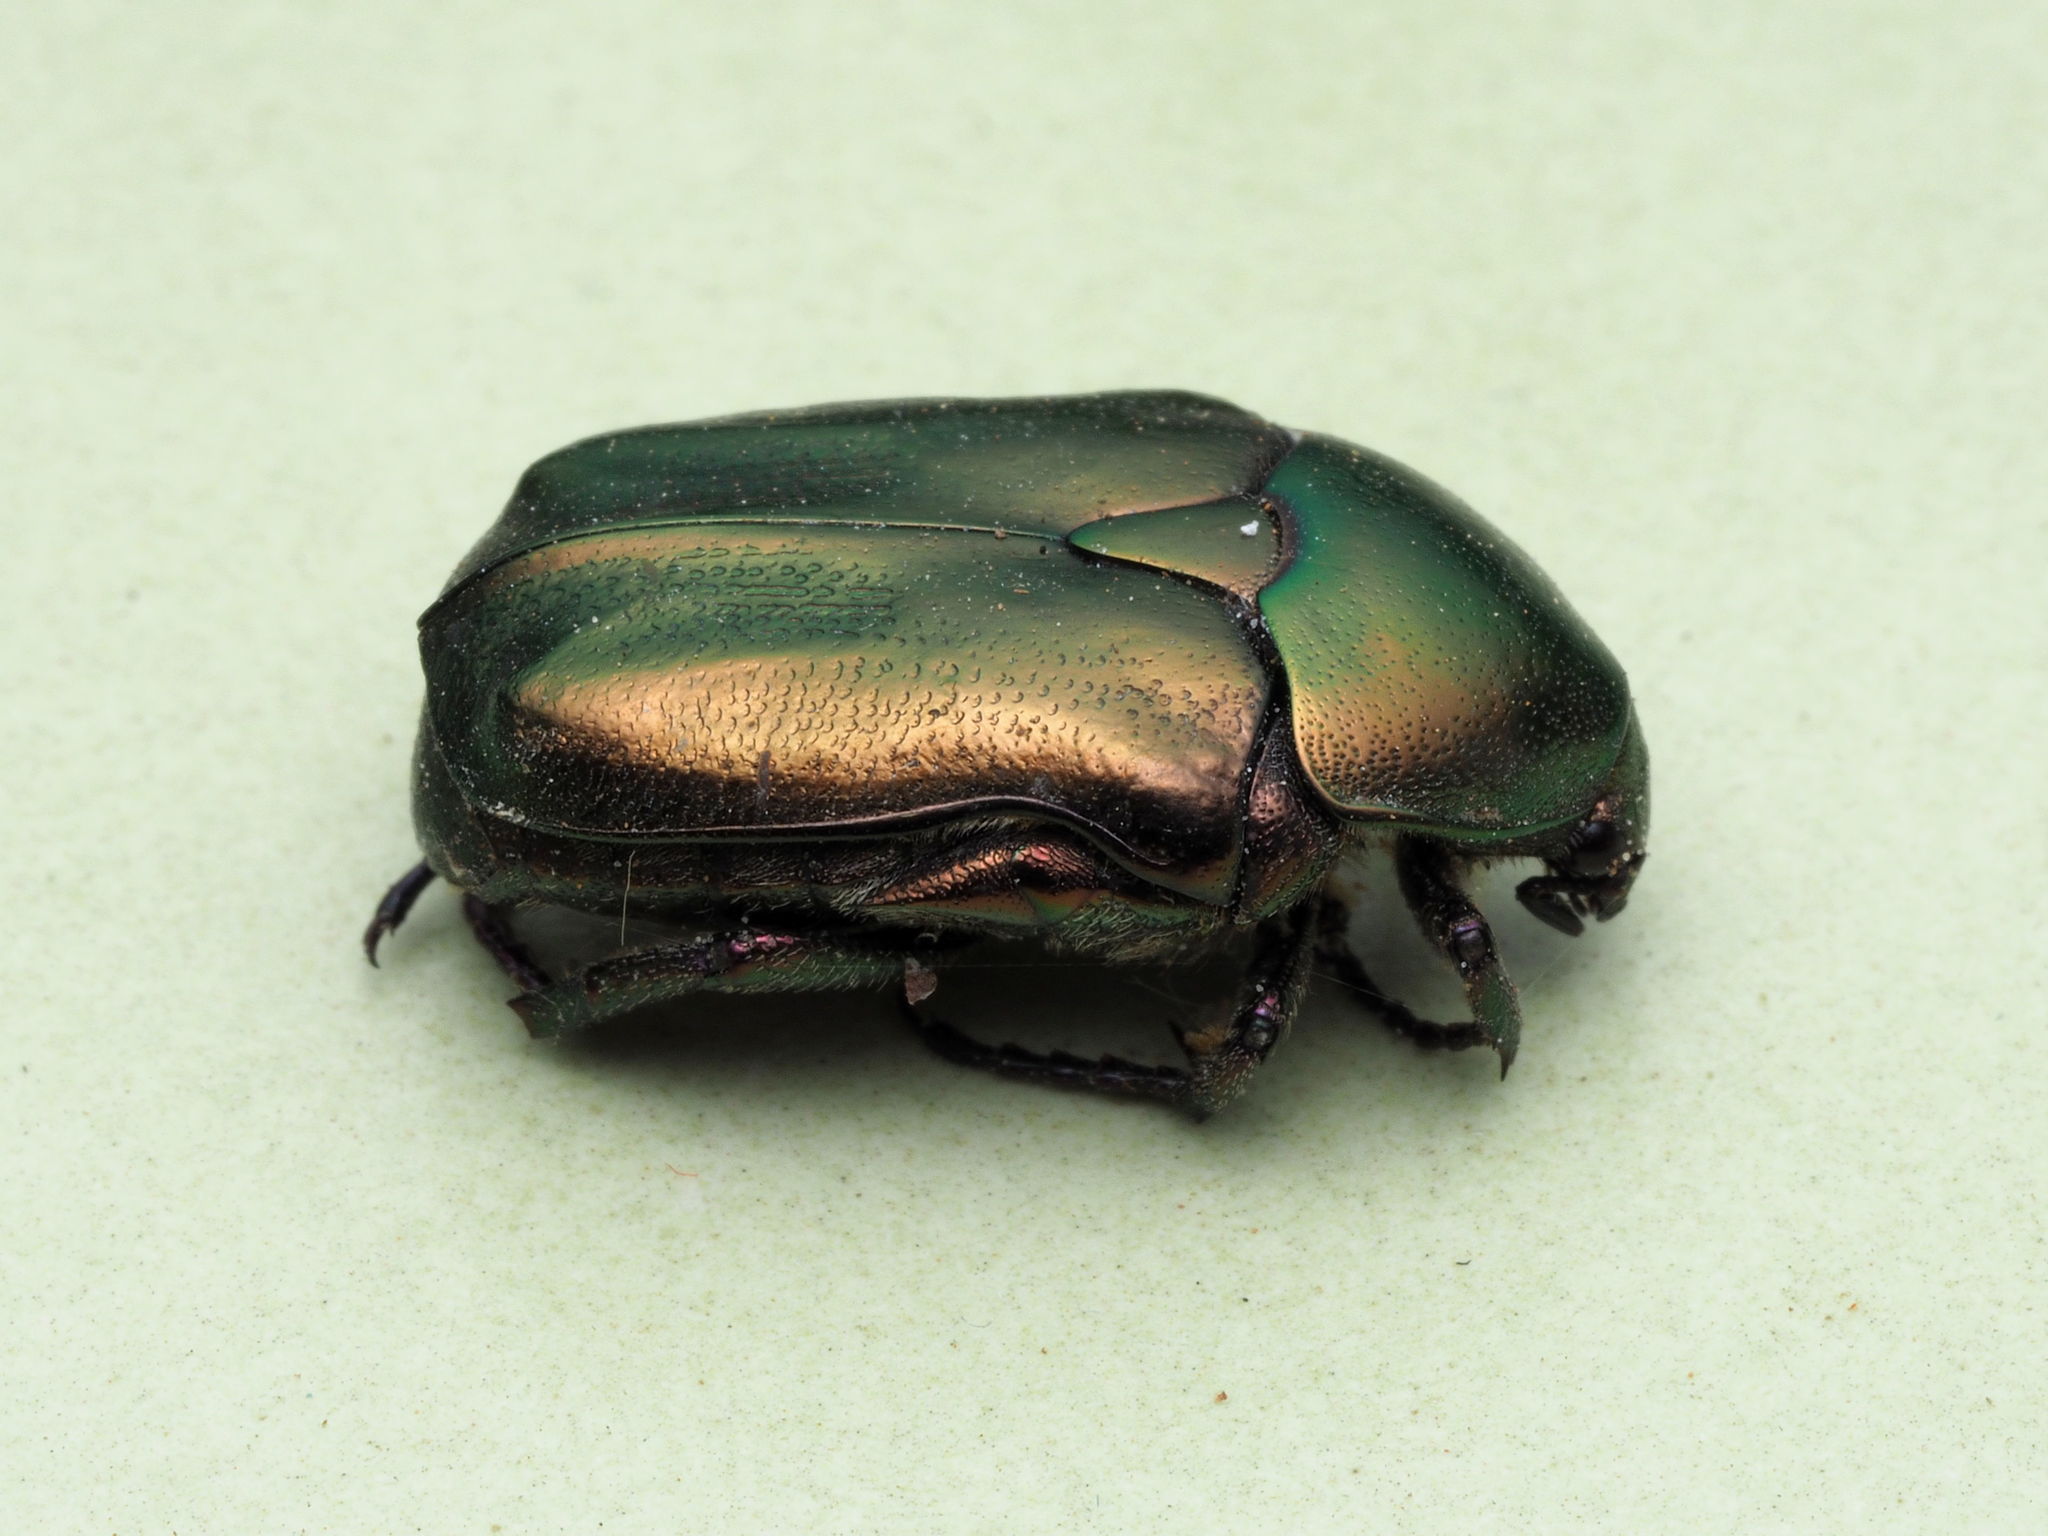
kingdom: Animalia
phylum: Arthropoda
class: Insecta
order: Coleoptera
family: Scarabaeidae
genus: Protaetia
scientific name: Protaetia cuprea
